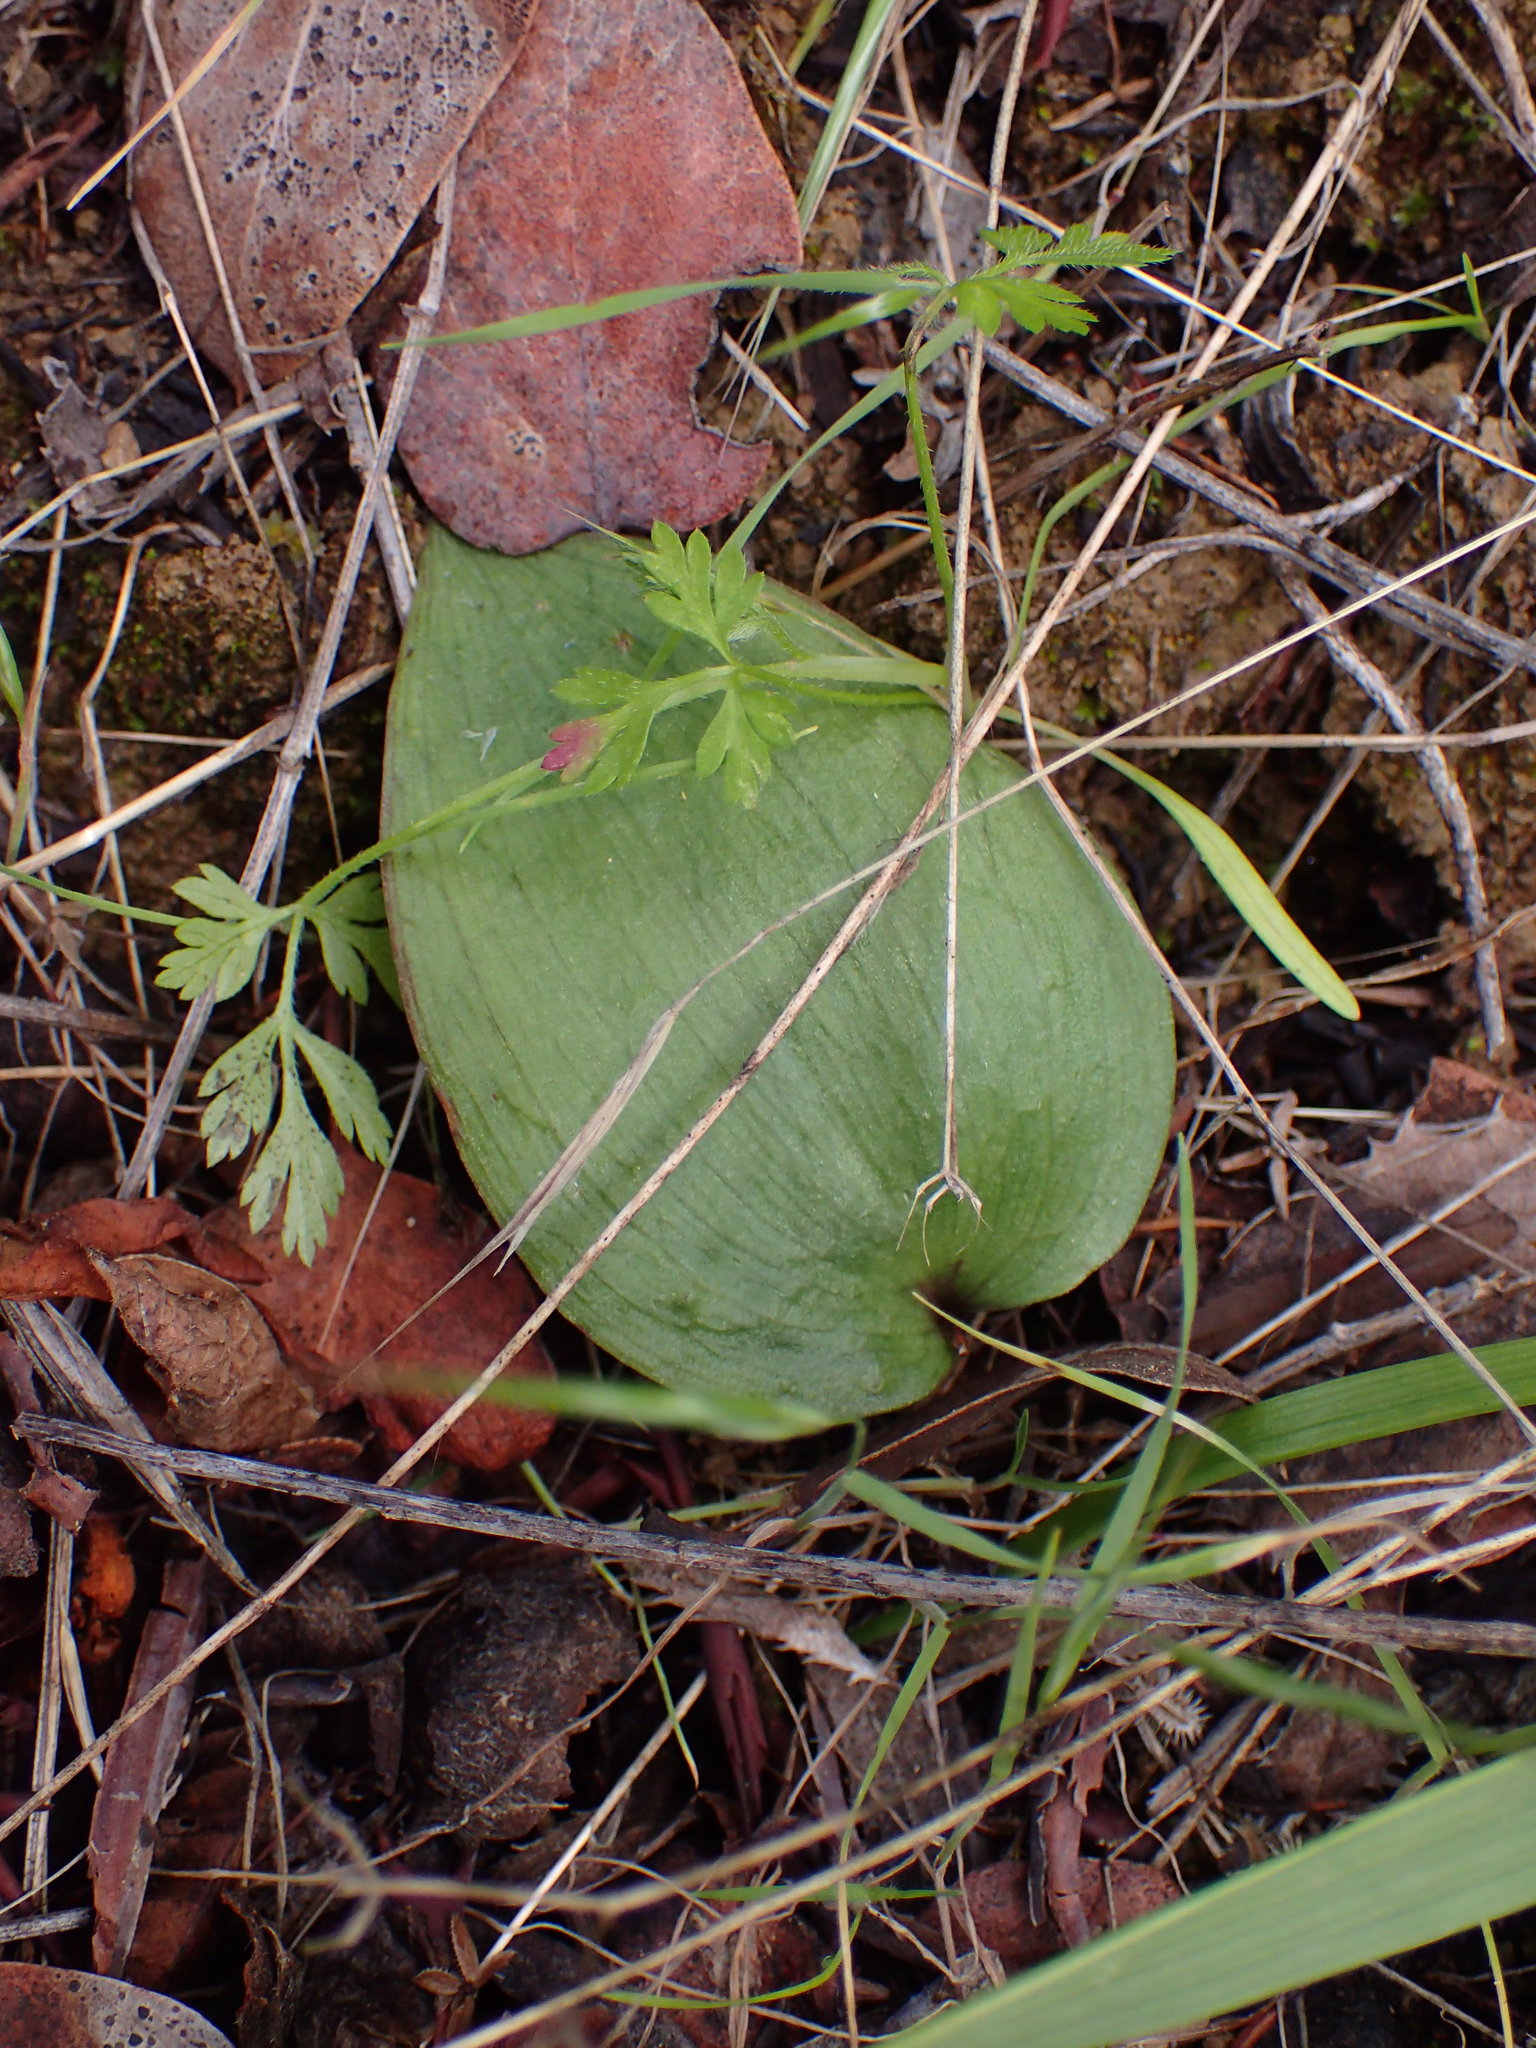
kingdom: Plantae
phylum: Tracheophyta
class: Liliopsida
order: Liliales
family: Liliaceae
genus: Fritillaria
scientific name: Fritillaria ojaiensis
